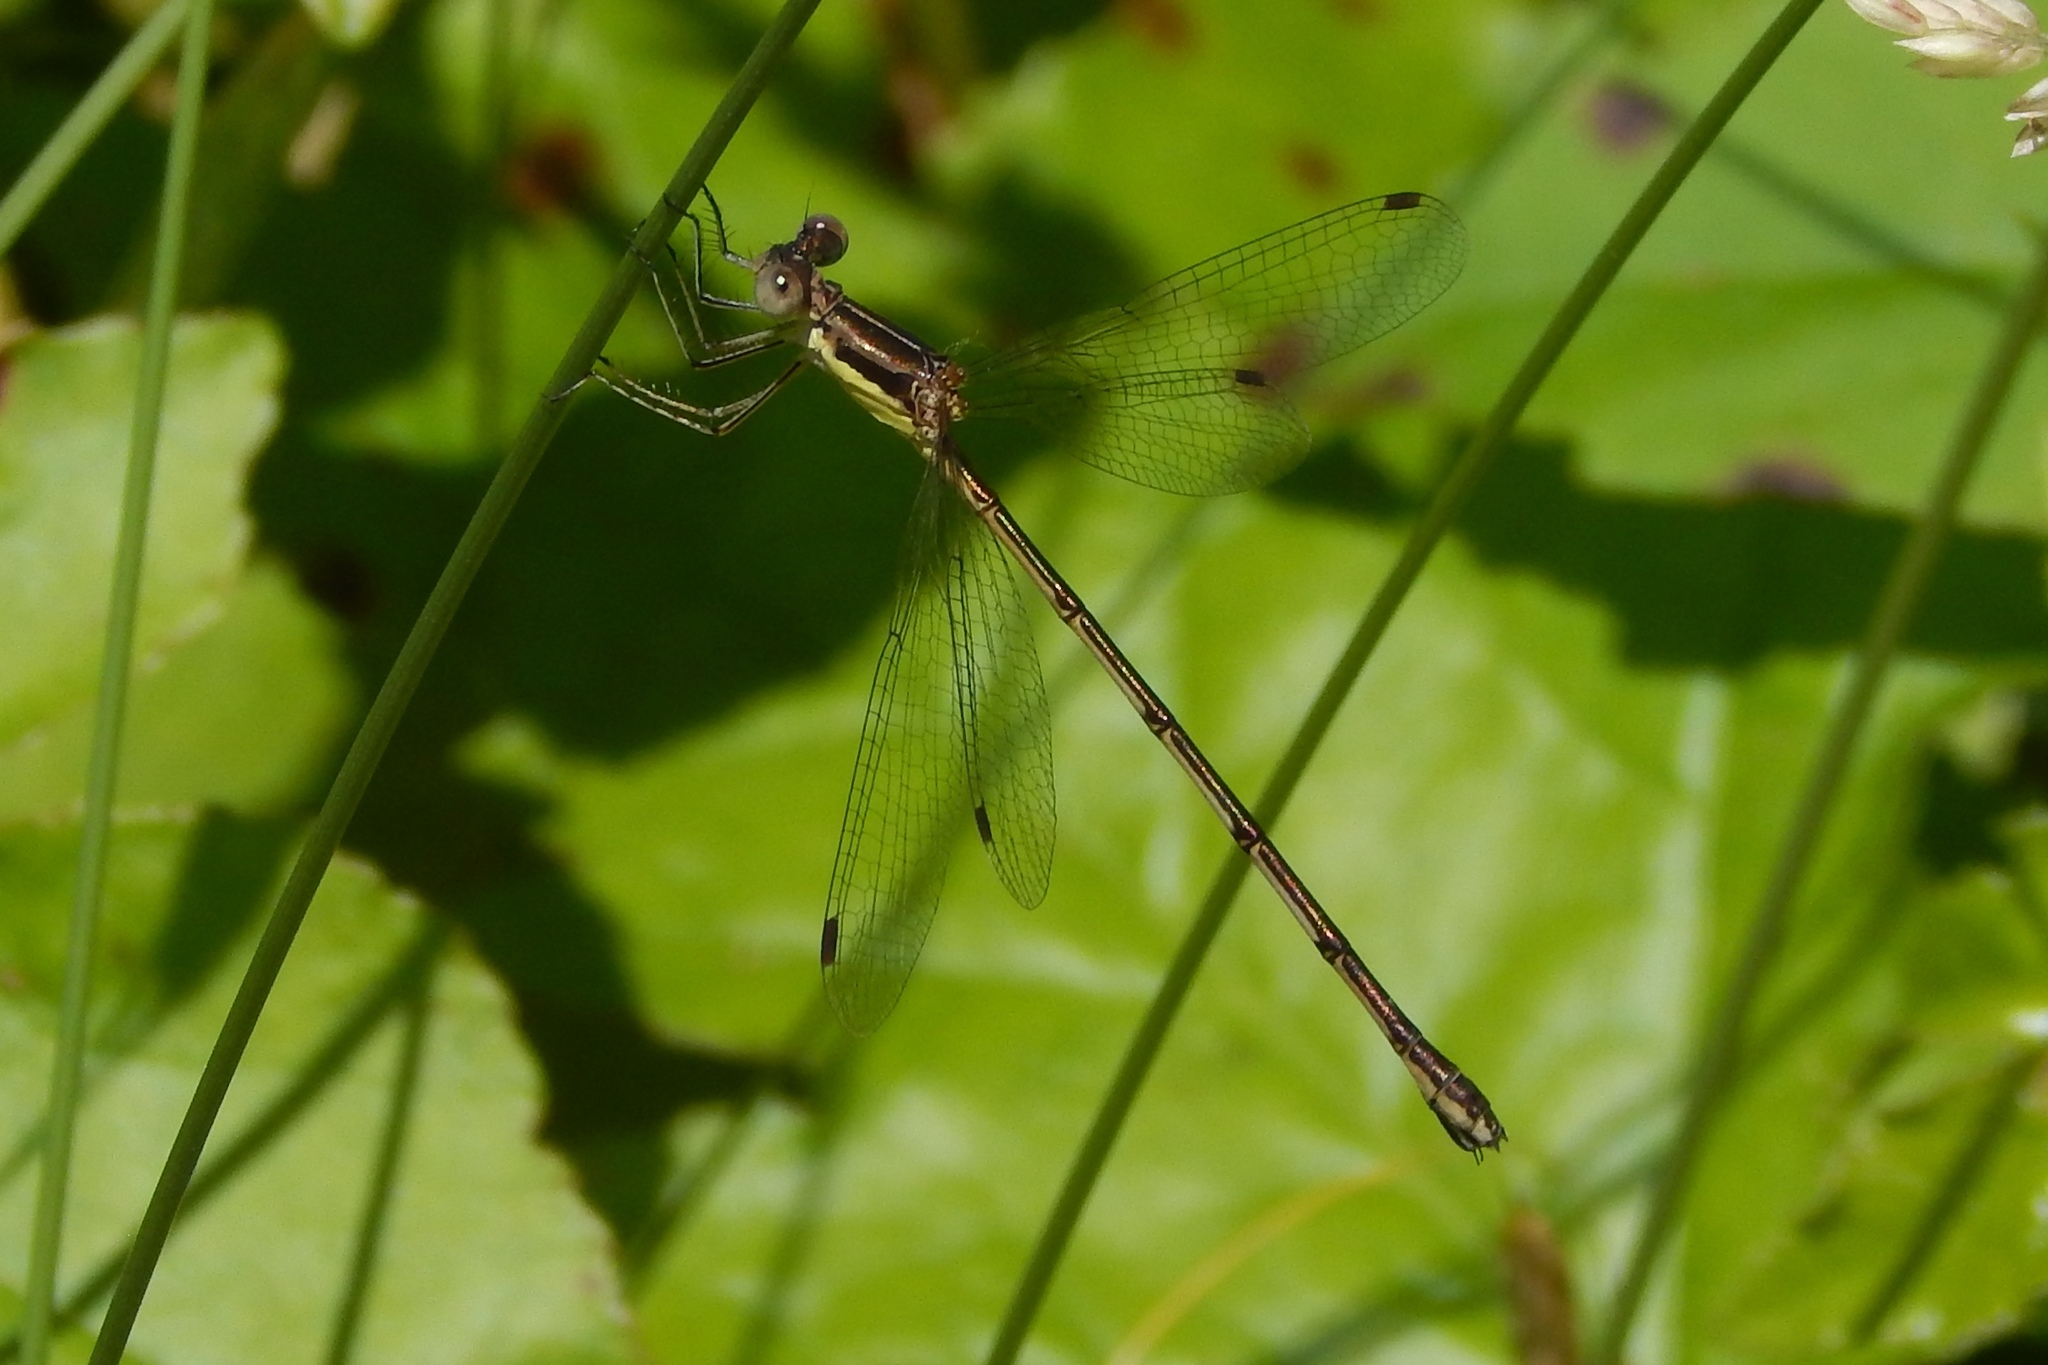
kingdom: Animalia
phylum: Arthropoda
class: Insecta
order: Odonata
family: Lestidae
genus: Lestes
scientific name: Lestes rectangularis
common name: Slender spreadwing
